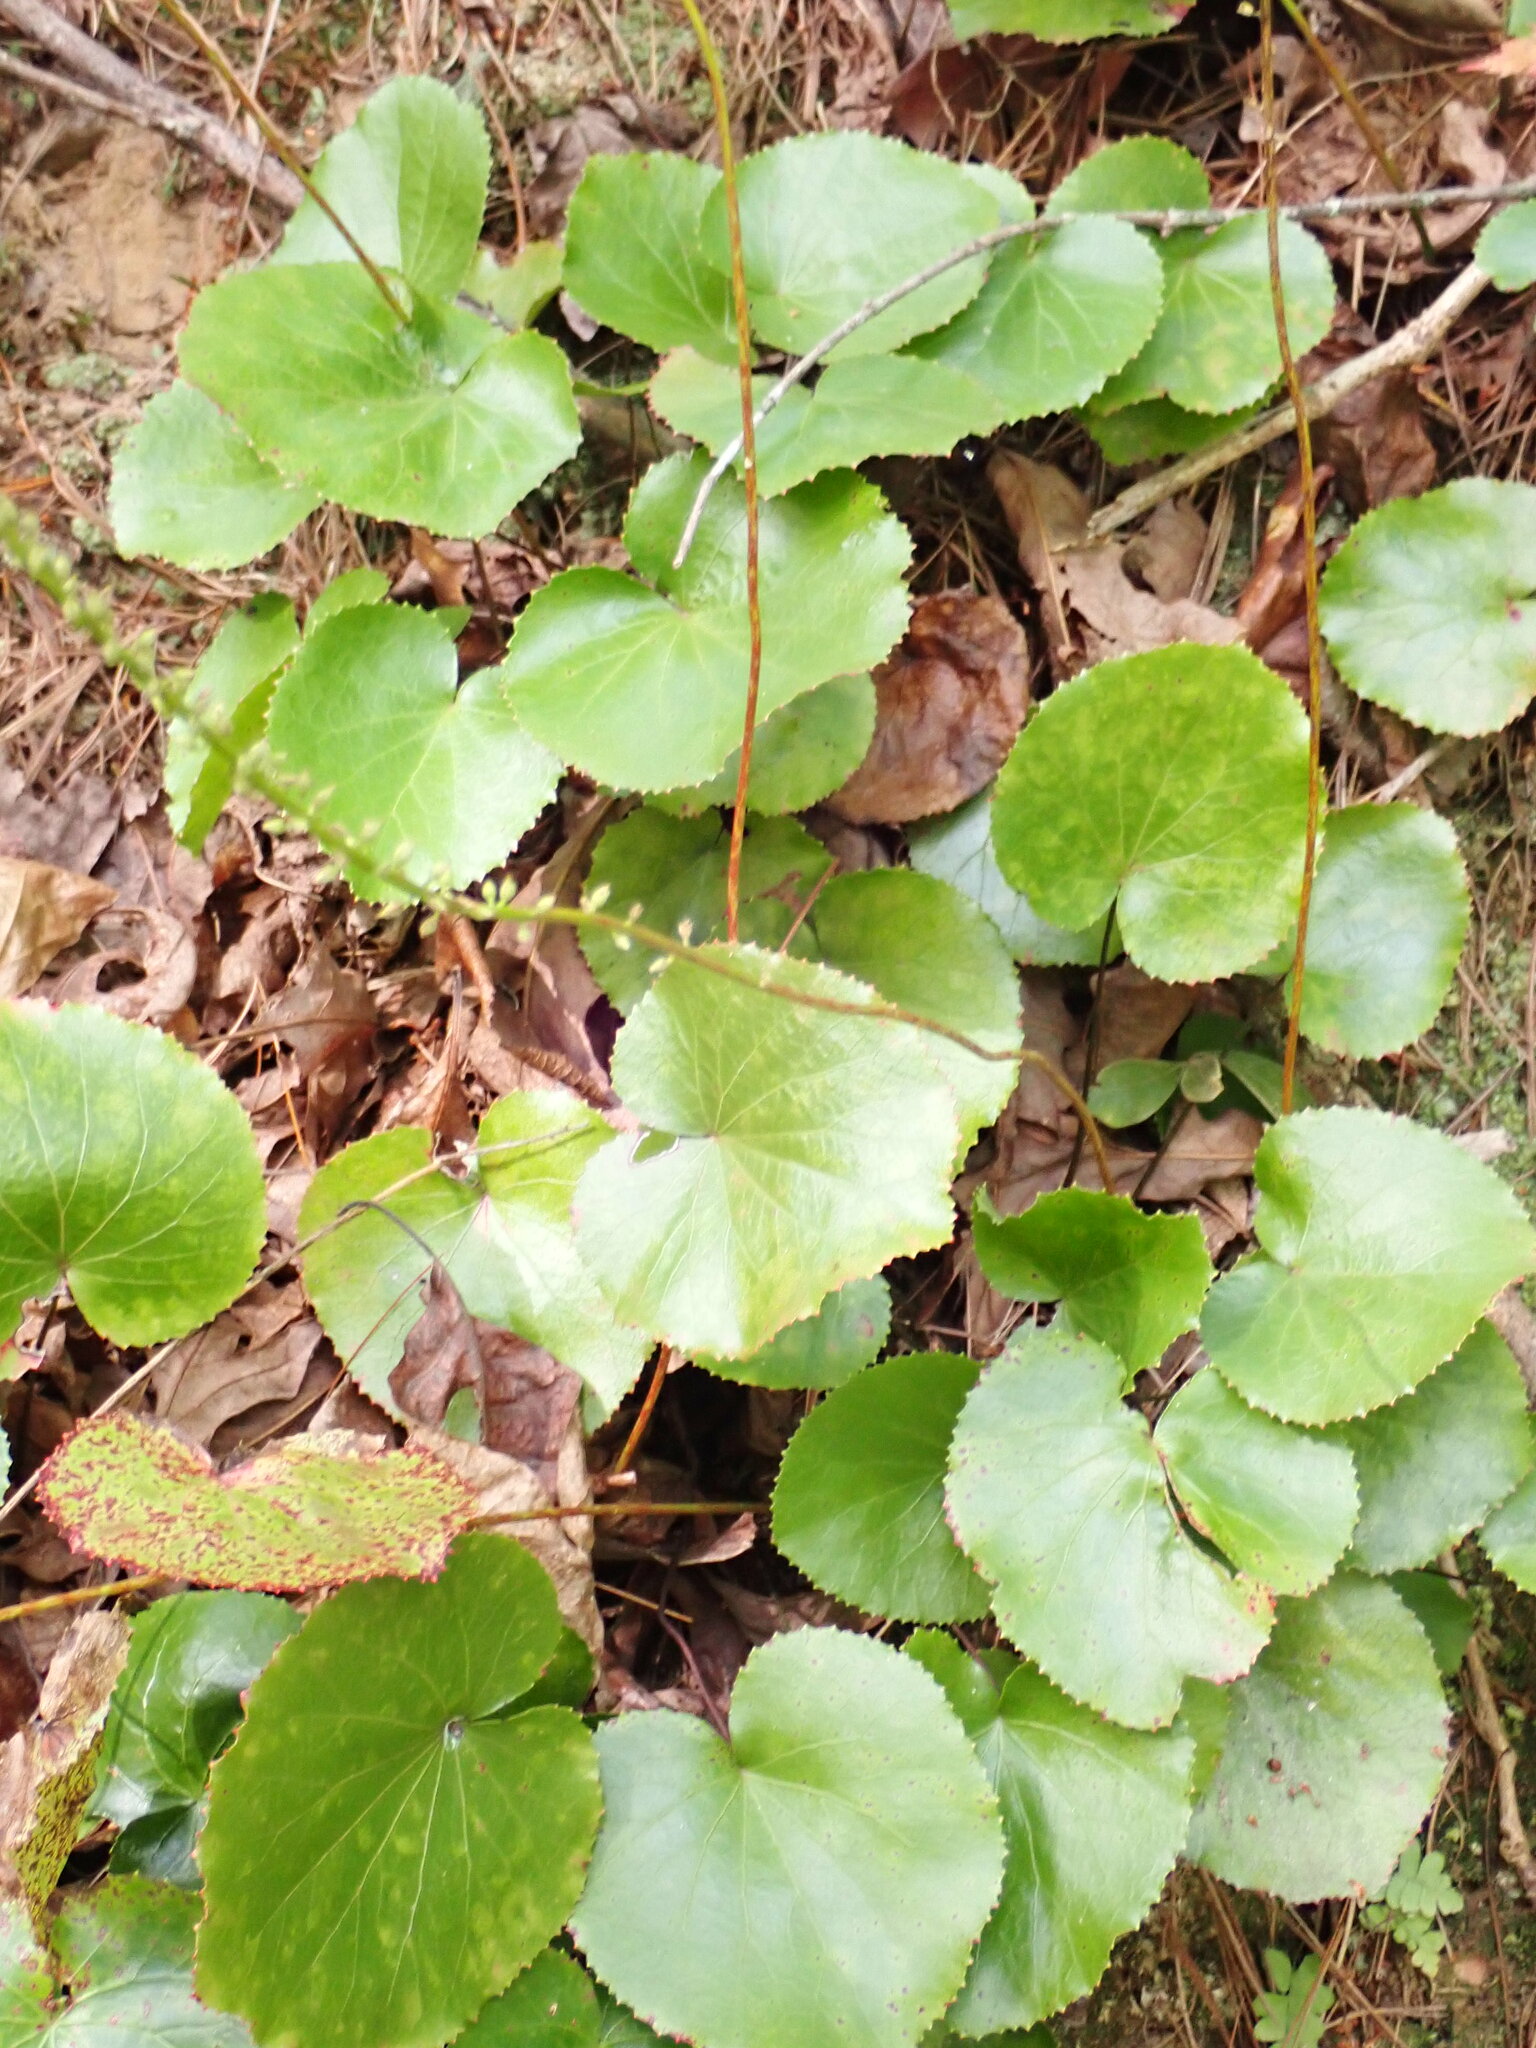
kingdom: Plantae
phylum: Tracheophyta
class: Magnoliopsida
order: Ericales
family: Diapensiaceae
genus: Galax
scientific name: Galax urceolata
